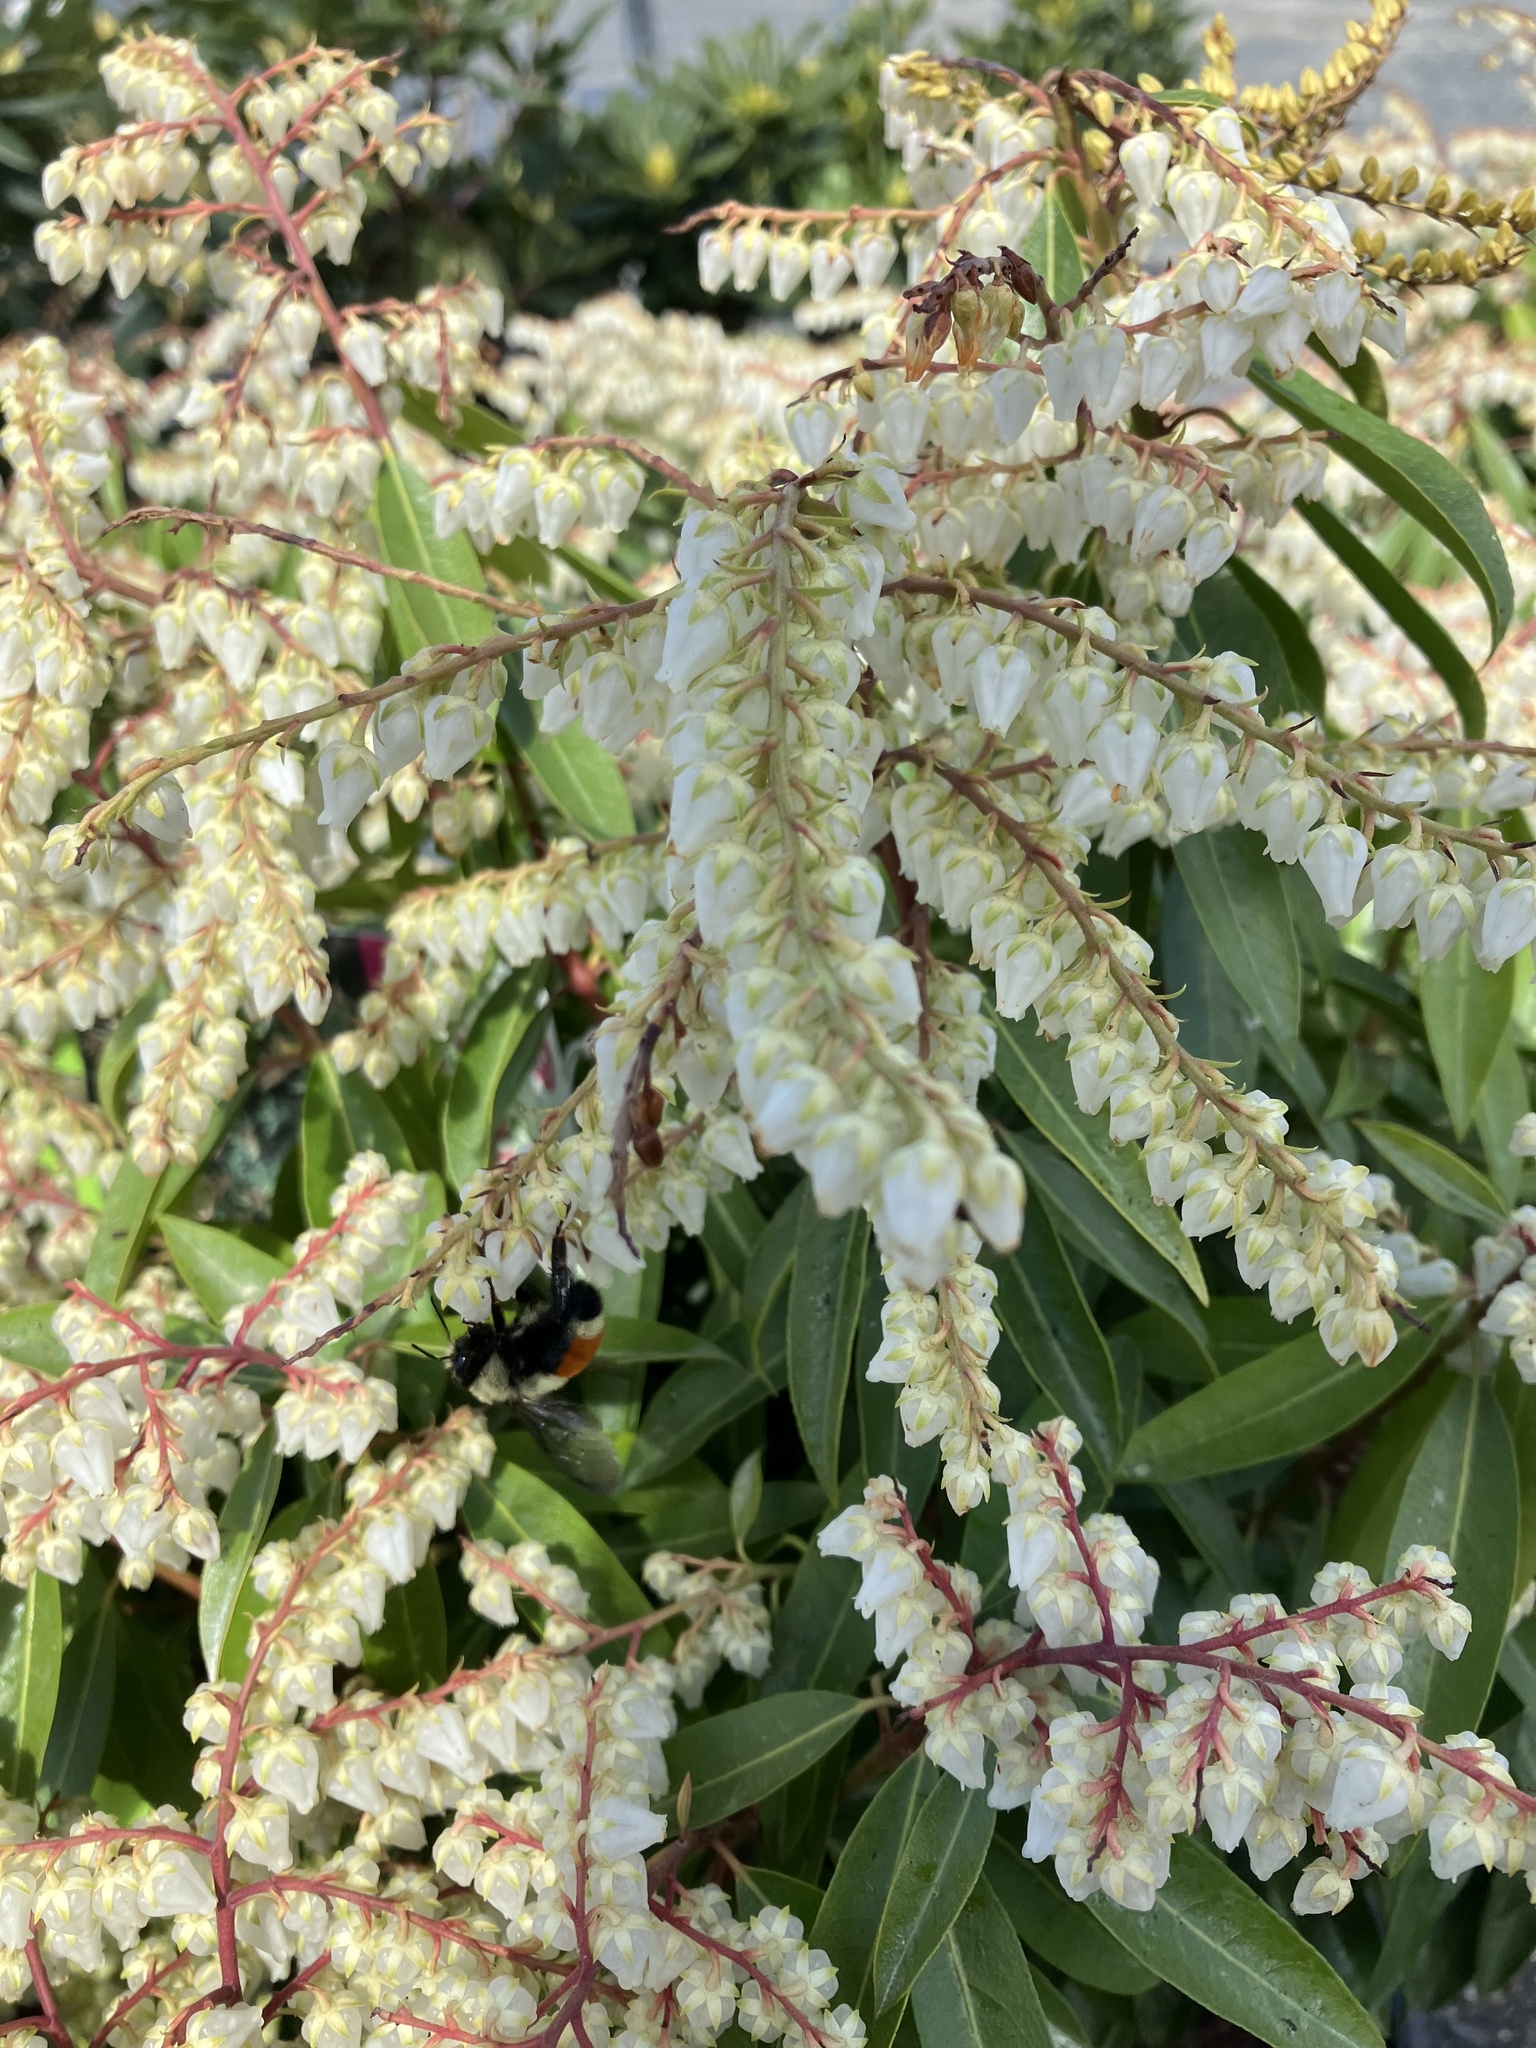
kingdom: Animalia
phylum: Arthropoda
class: Insecta
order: Hymenoptera
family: Apidae
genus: Bombus
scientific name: Bombus ternarius
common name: Tri-colored bumble bee
